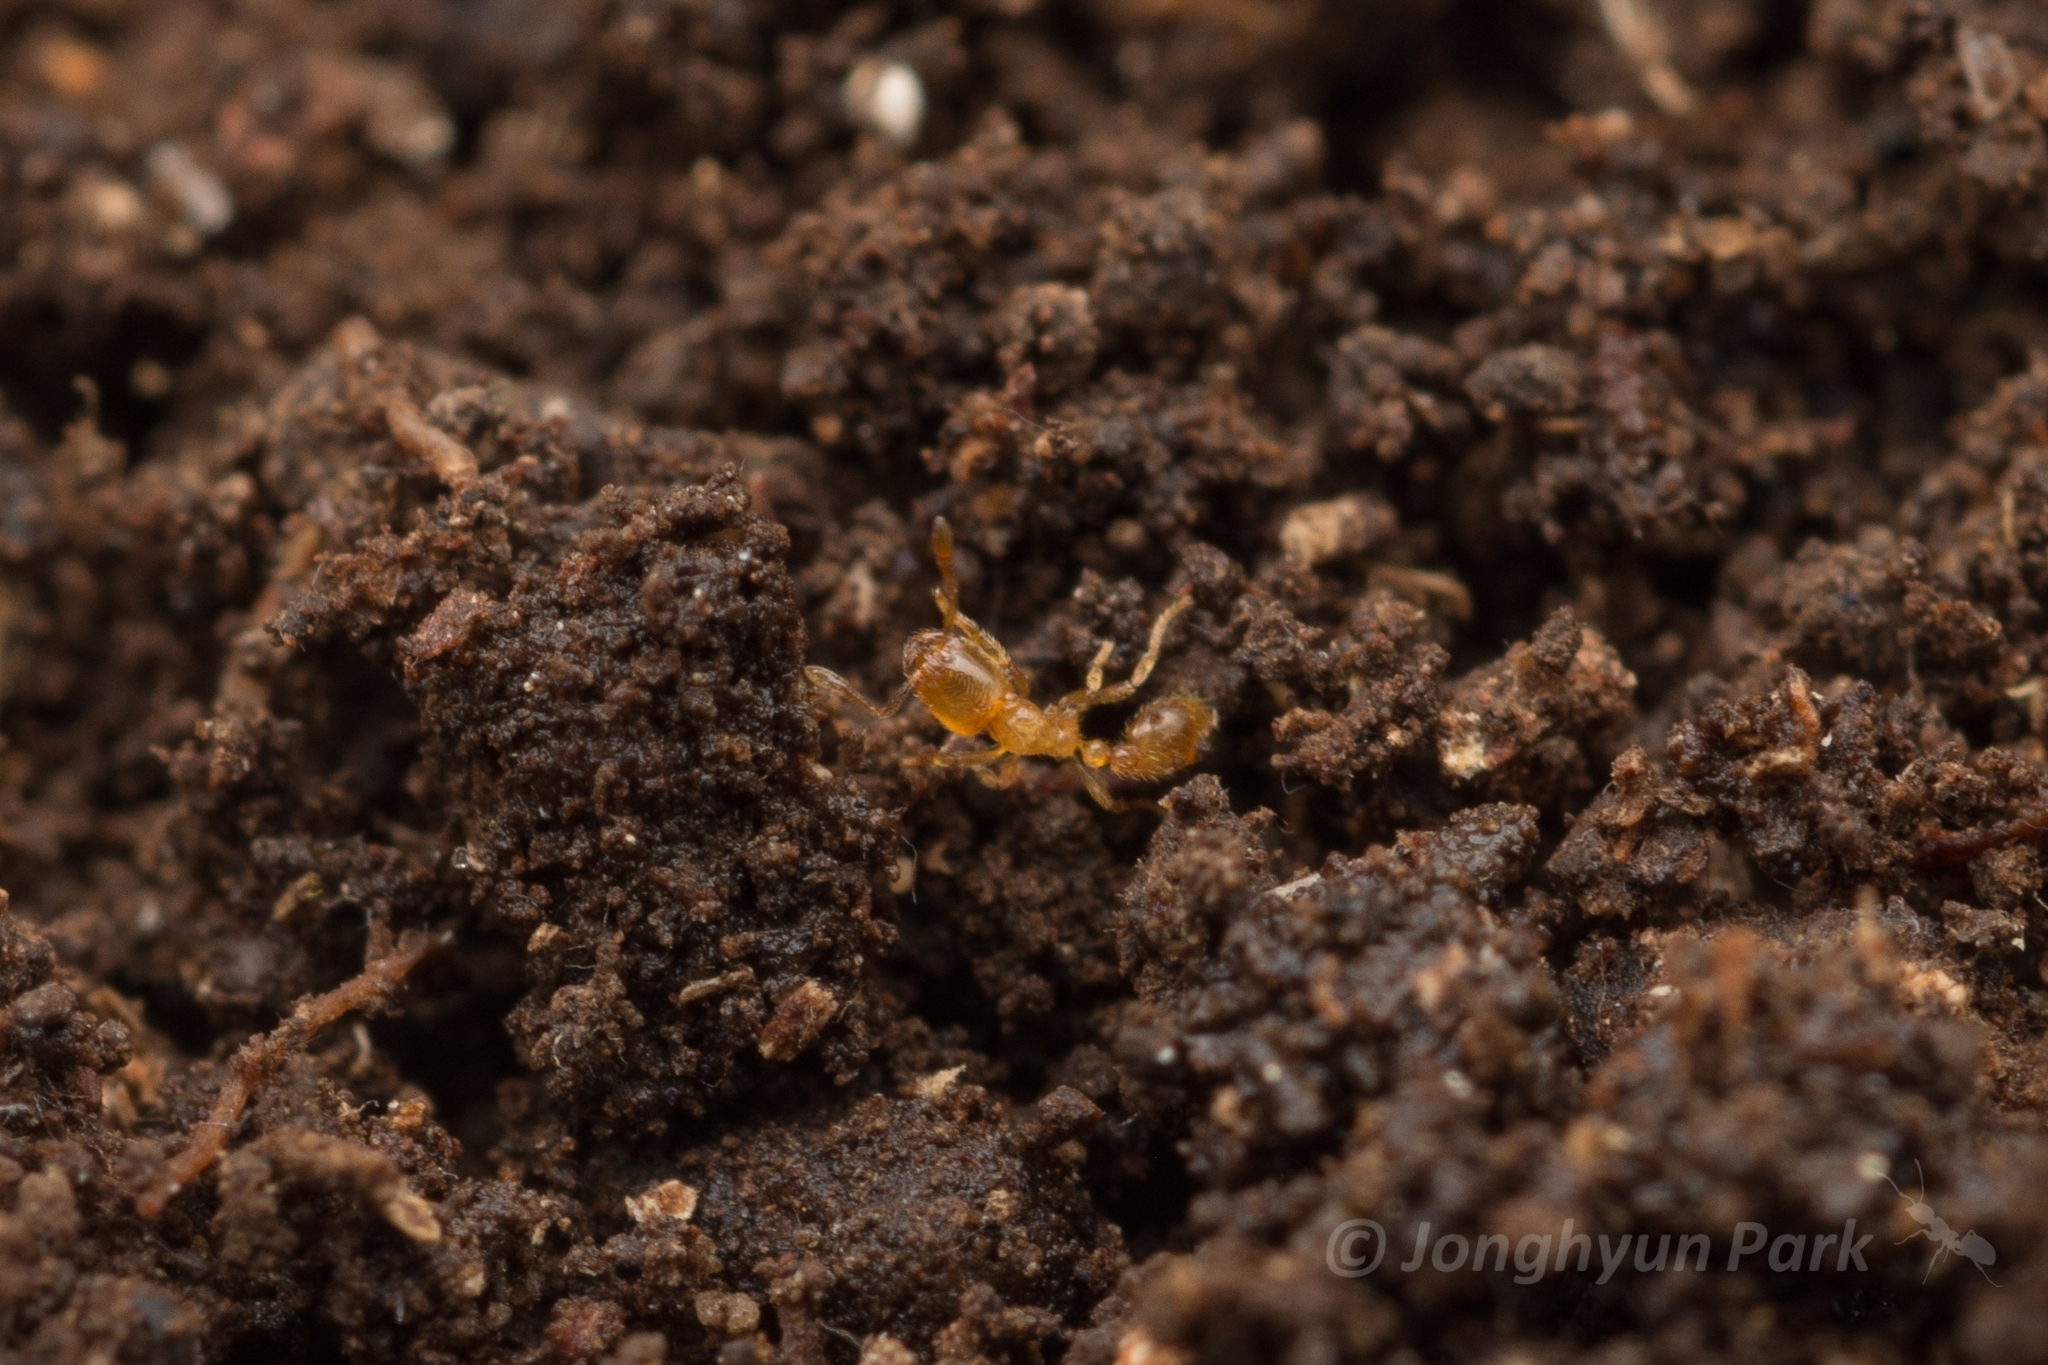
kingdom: Animalia
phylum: Arthropoda
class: Insecta
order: Hymenoptera
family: Formicidae
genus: Solenopsis
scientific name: Solenopsis japonica
